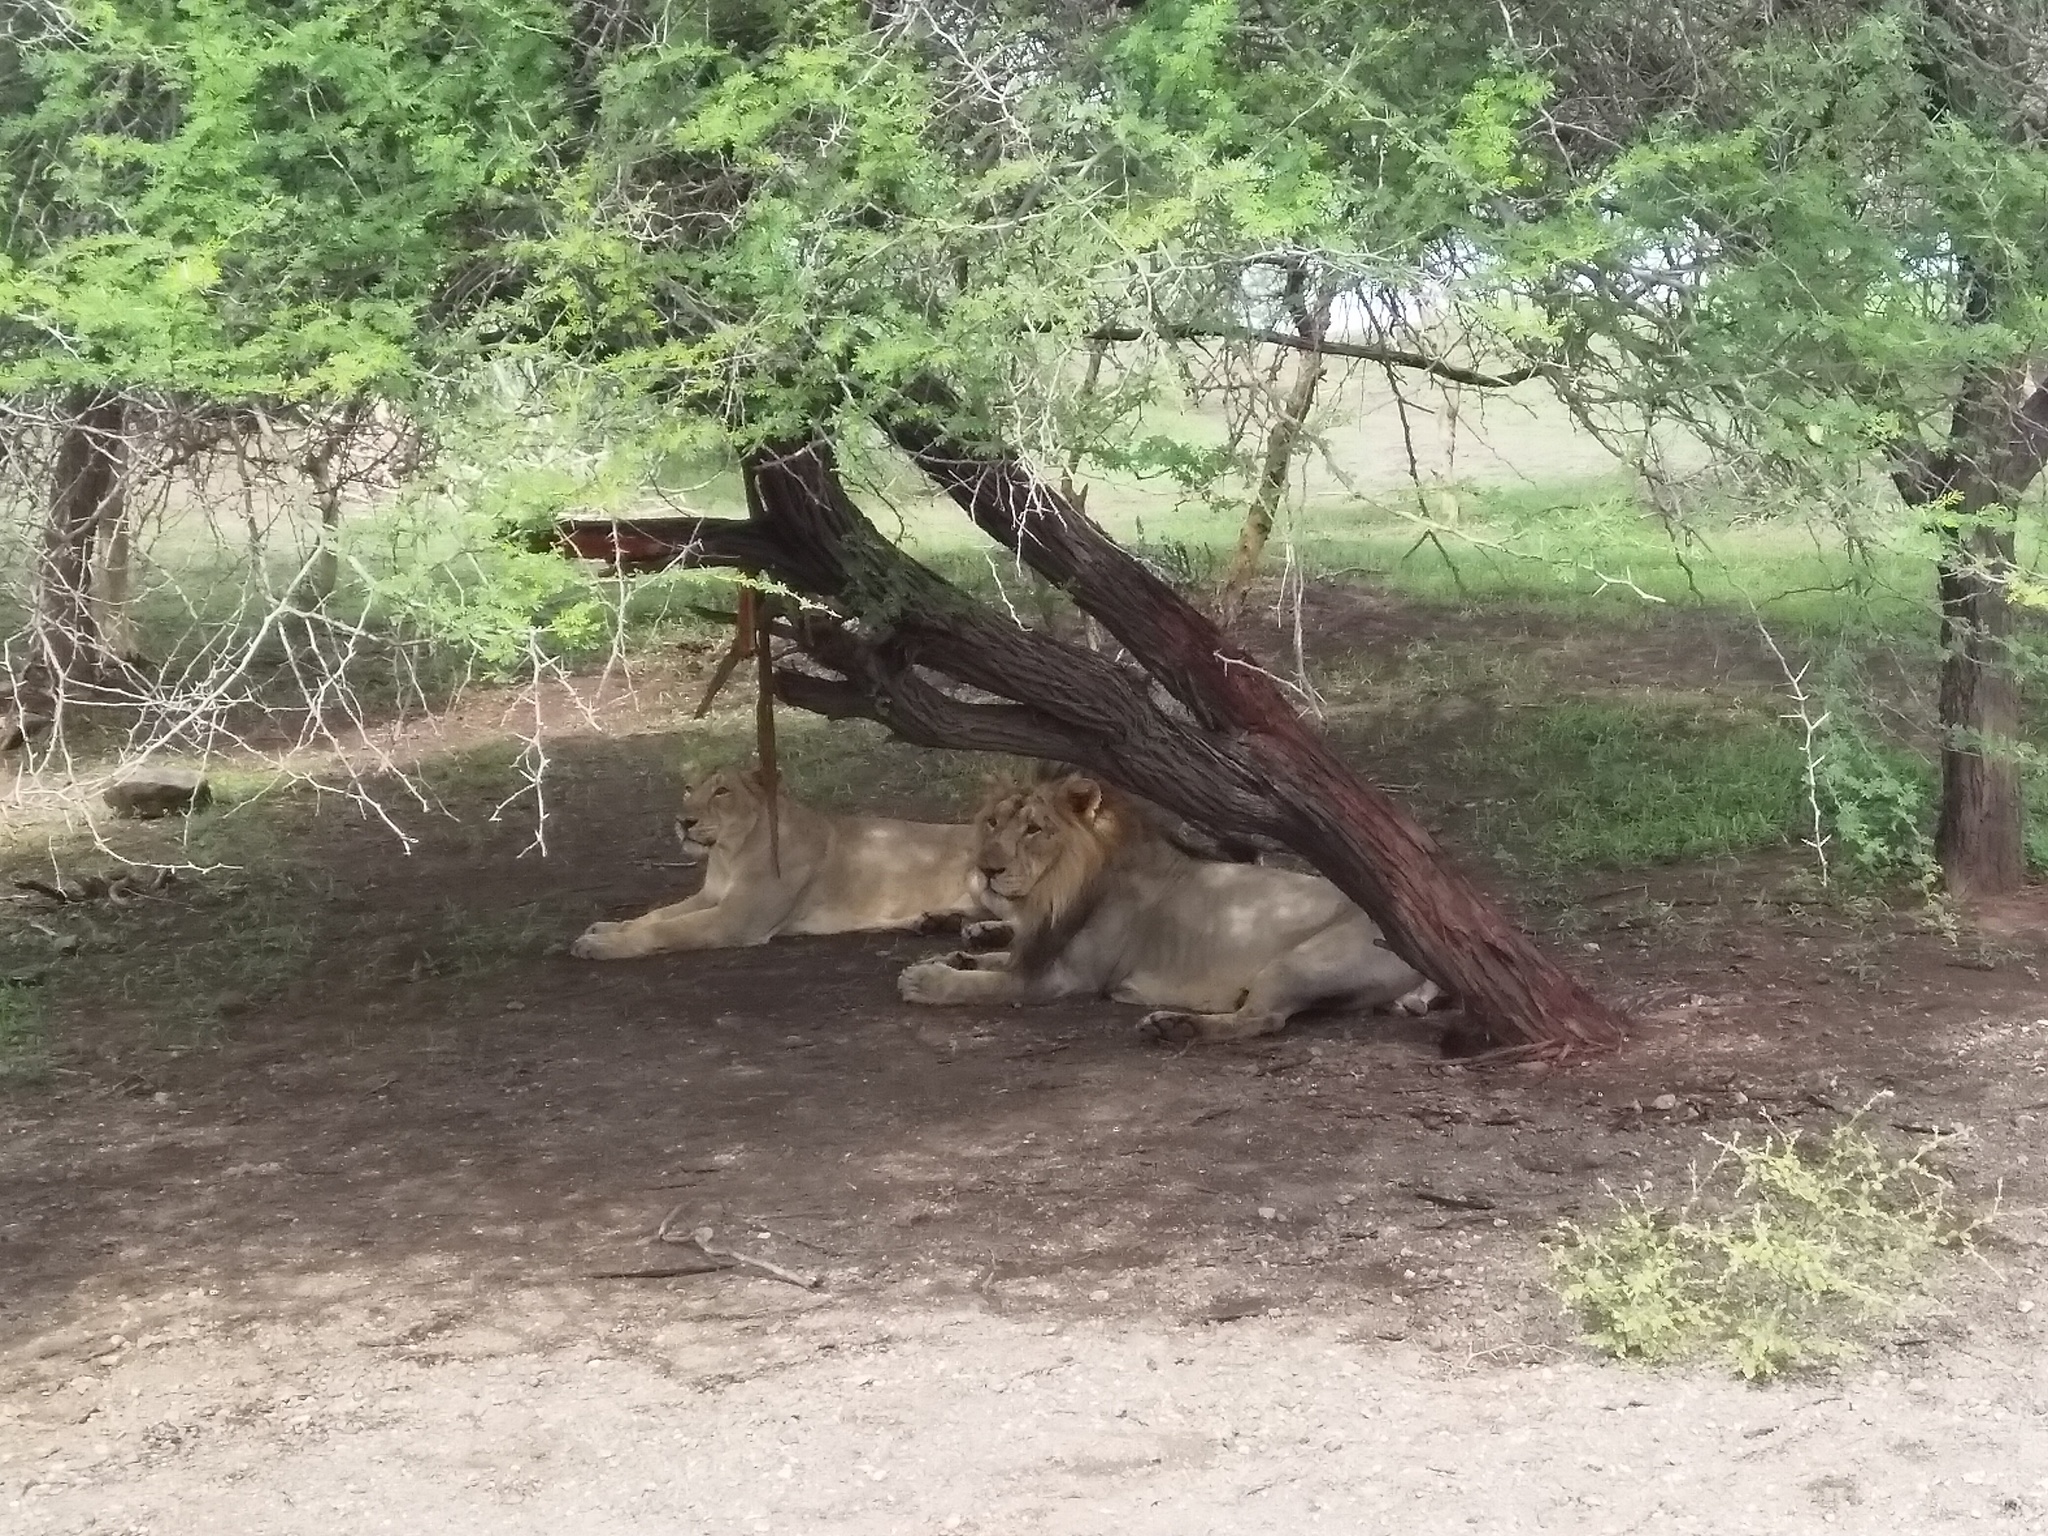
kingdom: Animalia
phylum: Chordata
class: Mammalia
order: Carnivora
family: Felidae
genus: Panthera
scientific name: Panthera leo
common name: Lion
